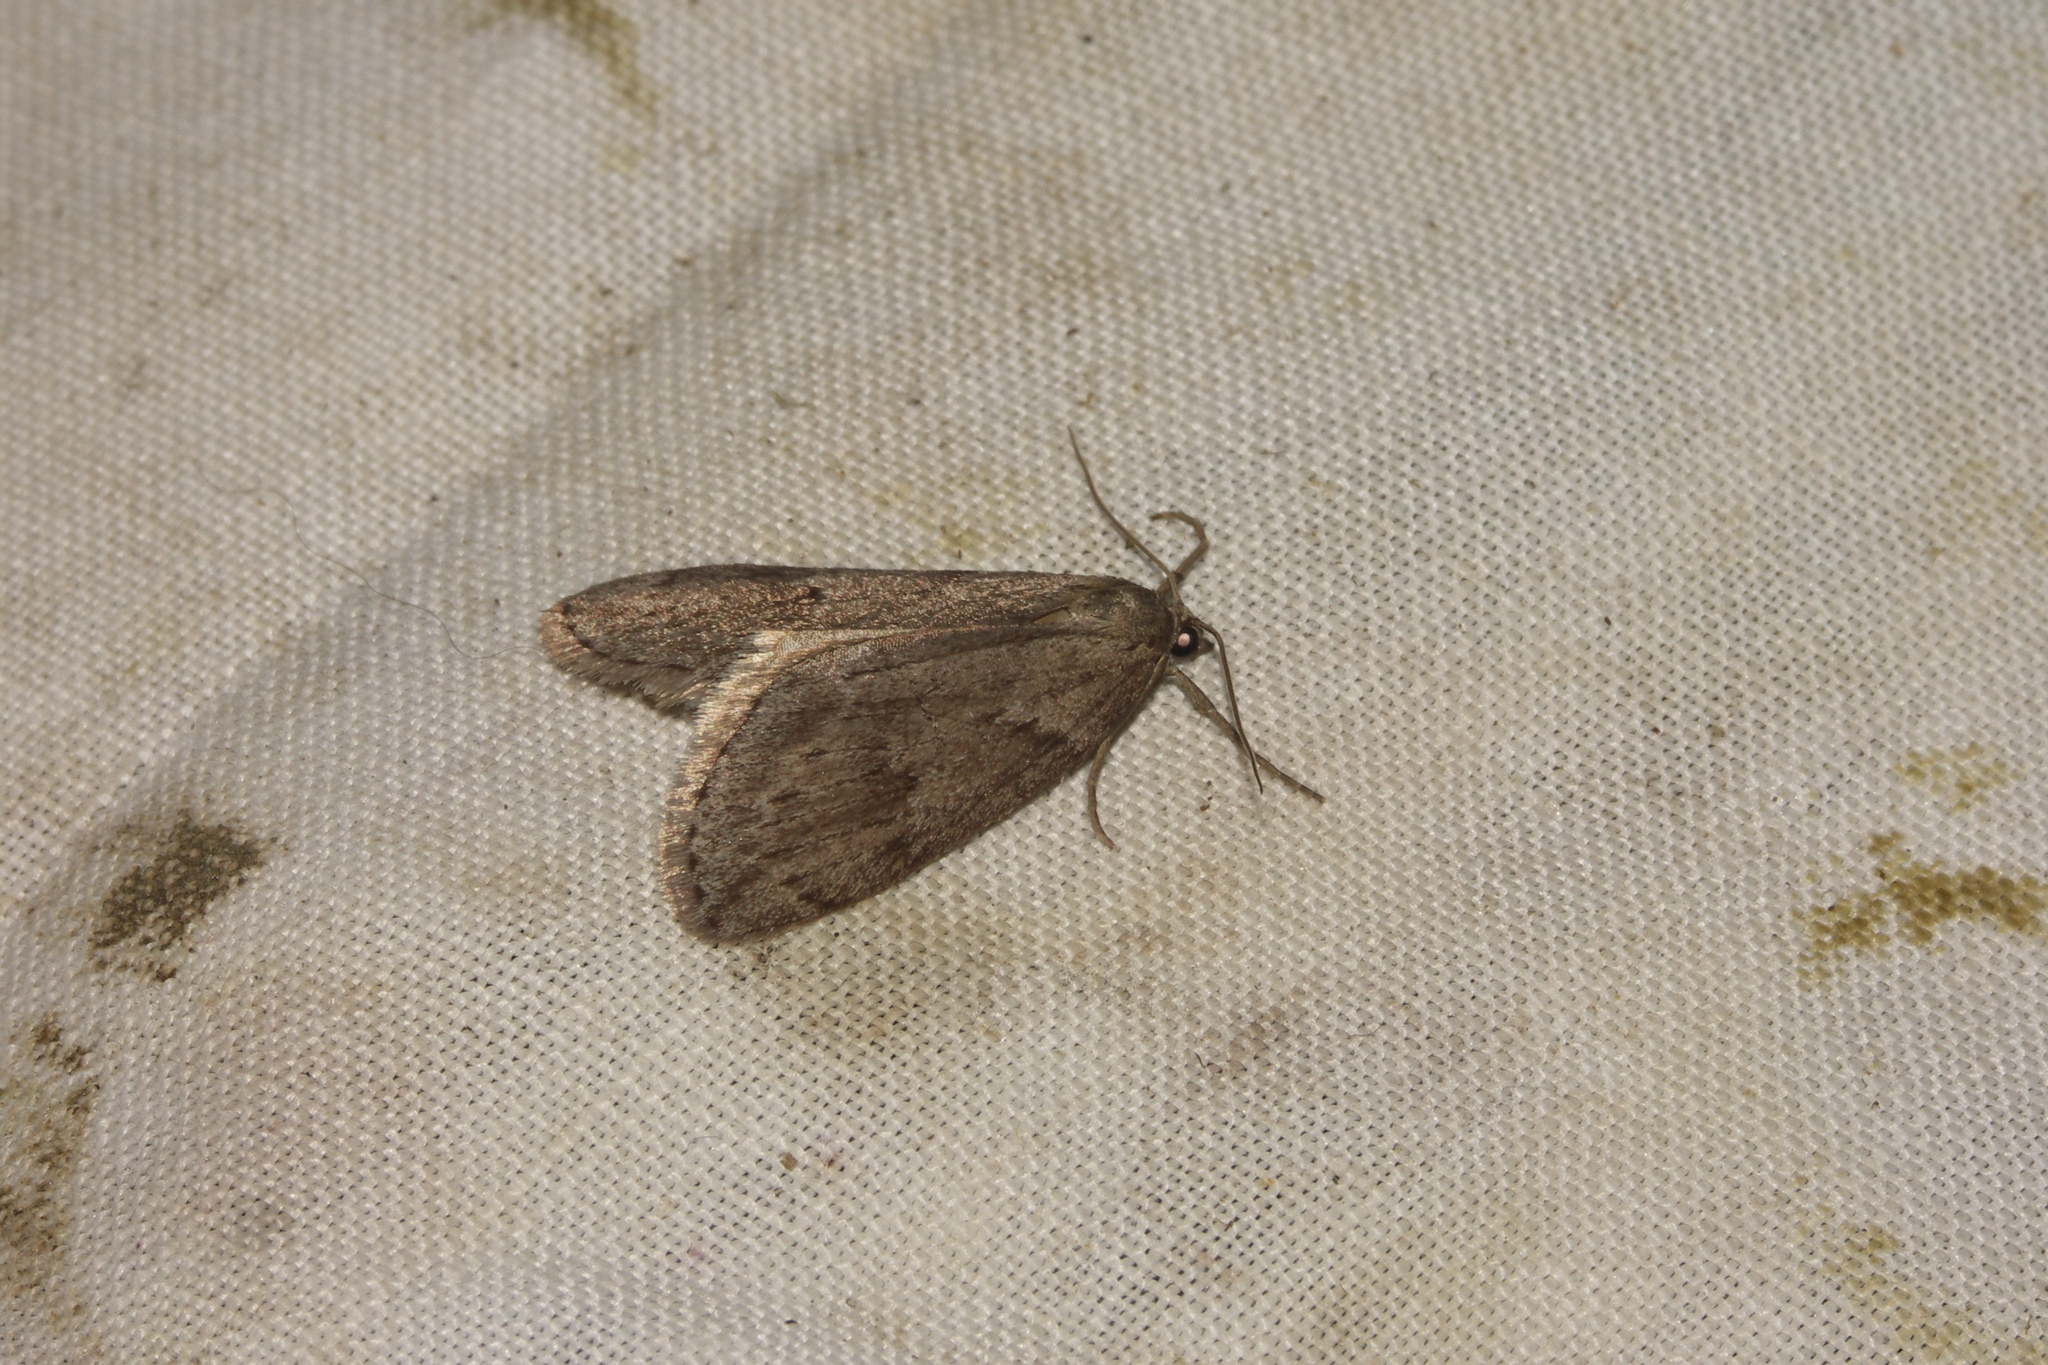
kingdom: Animalia
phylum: Arthropoda
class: Insecta
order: Lepidoptera
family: Geometridae
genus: Pachycnemia
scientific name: Pachycnemia hippocastanaria
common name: Horse chestnut
